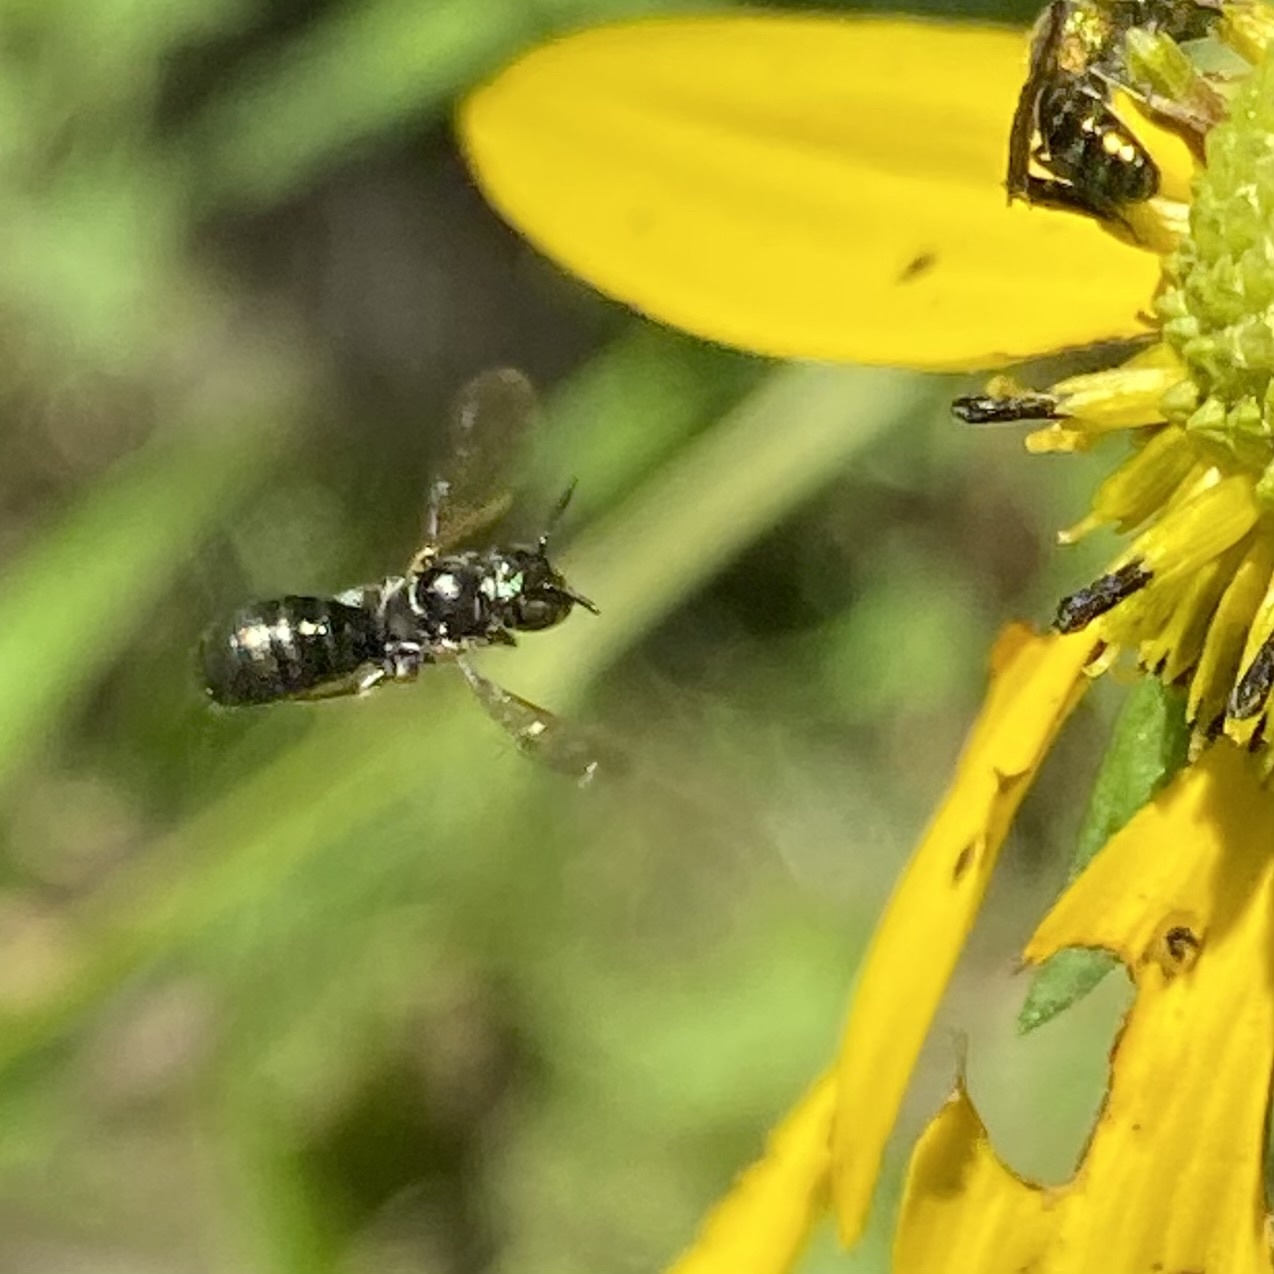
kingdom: Animalia
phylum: Arthropoda
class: Insecta
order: Hymenoptera
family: Apidae
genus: Zadontomerus
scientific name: Zadontomerus
